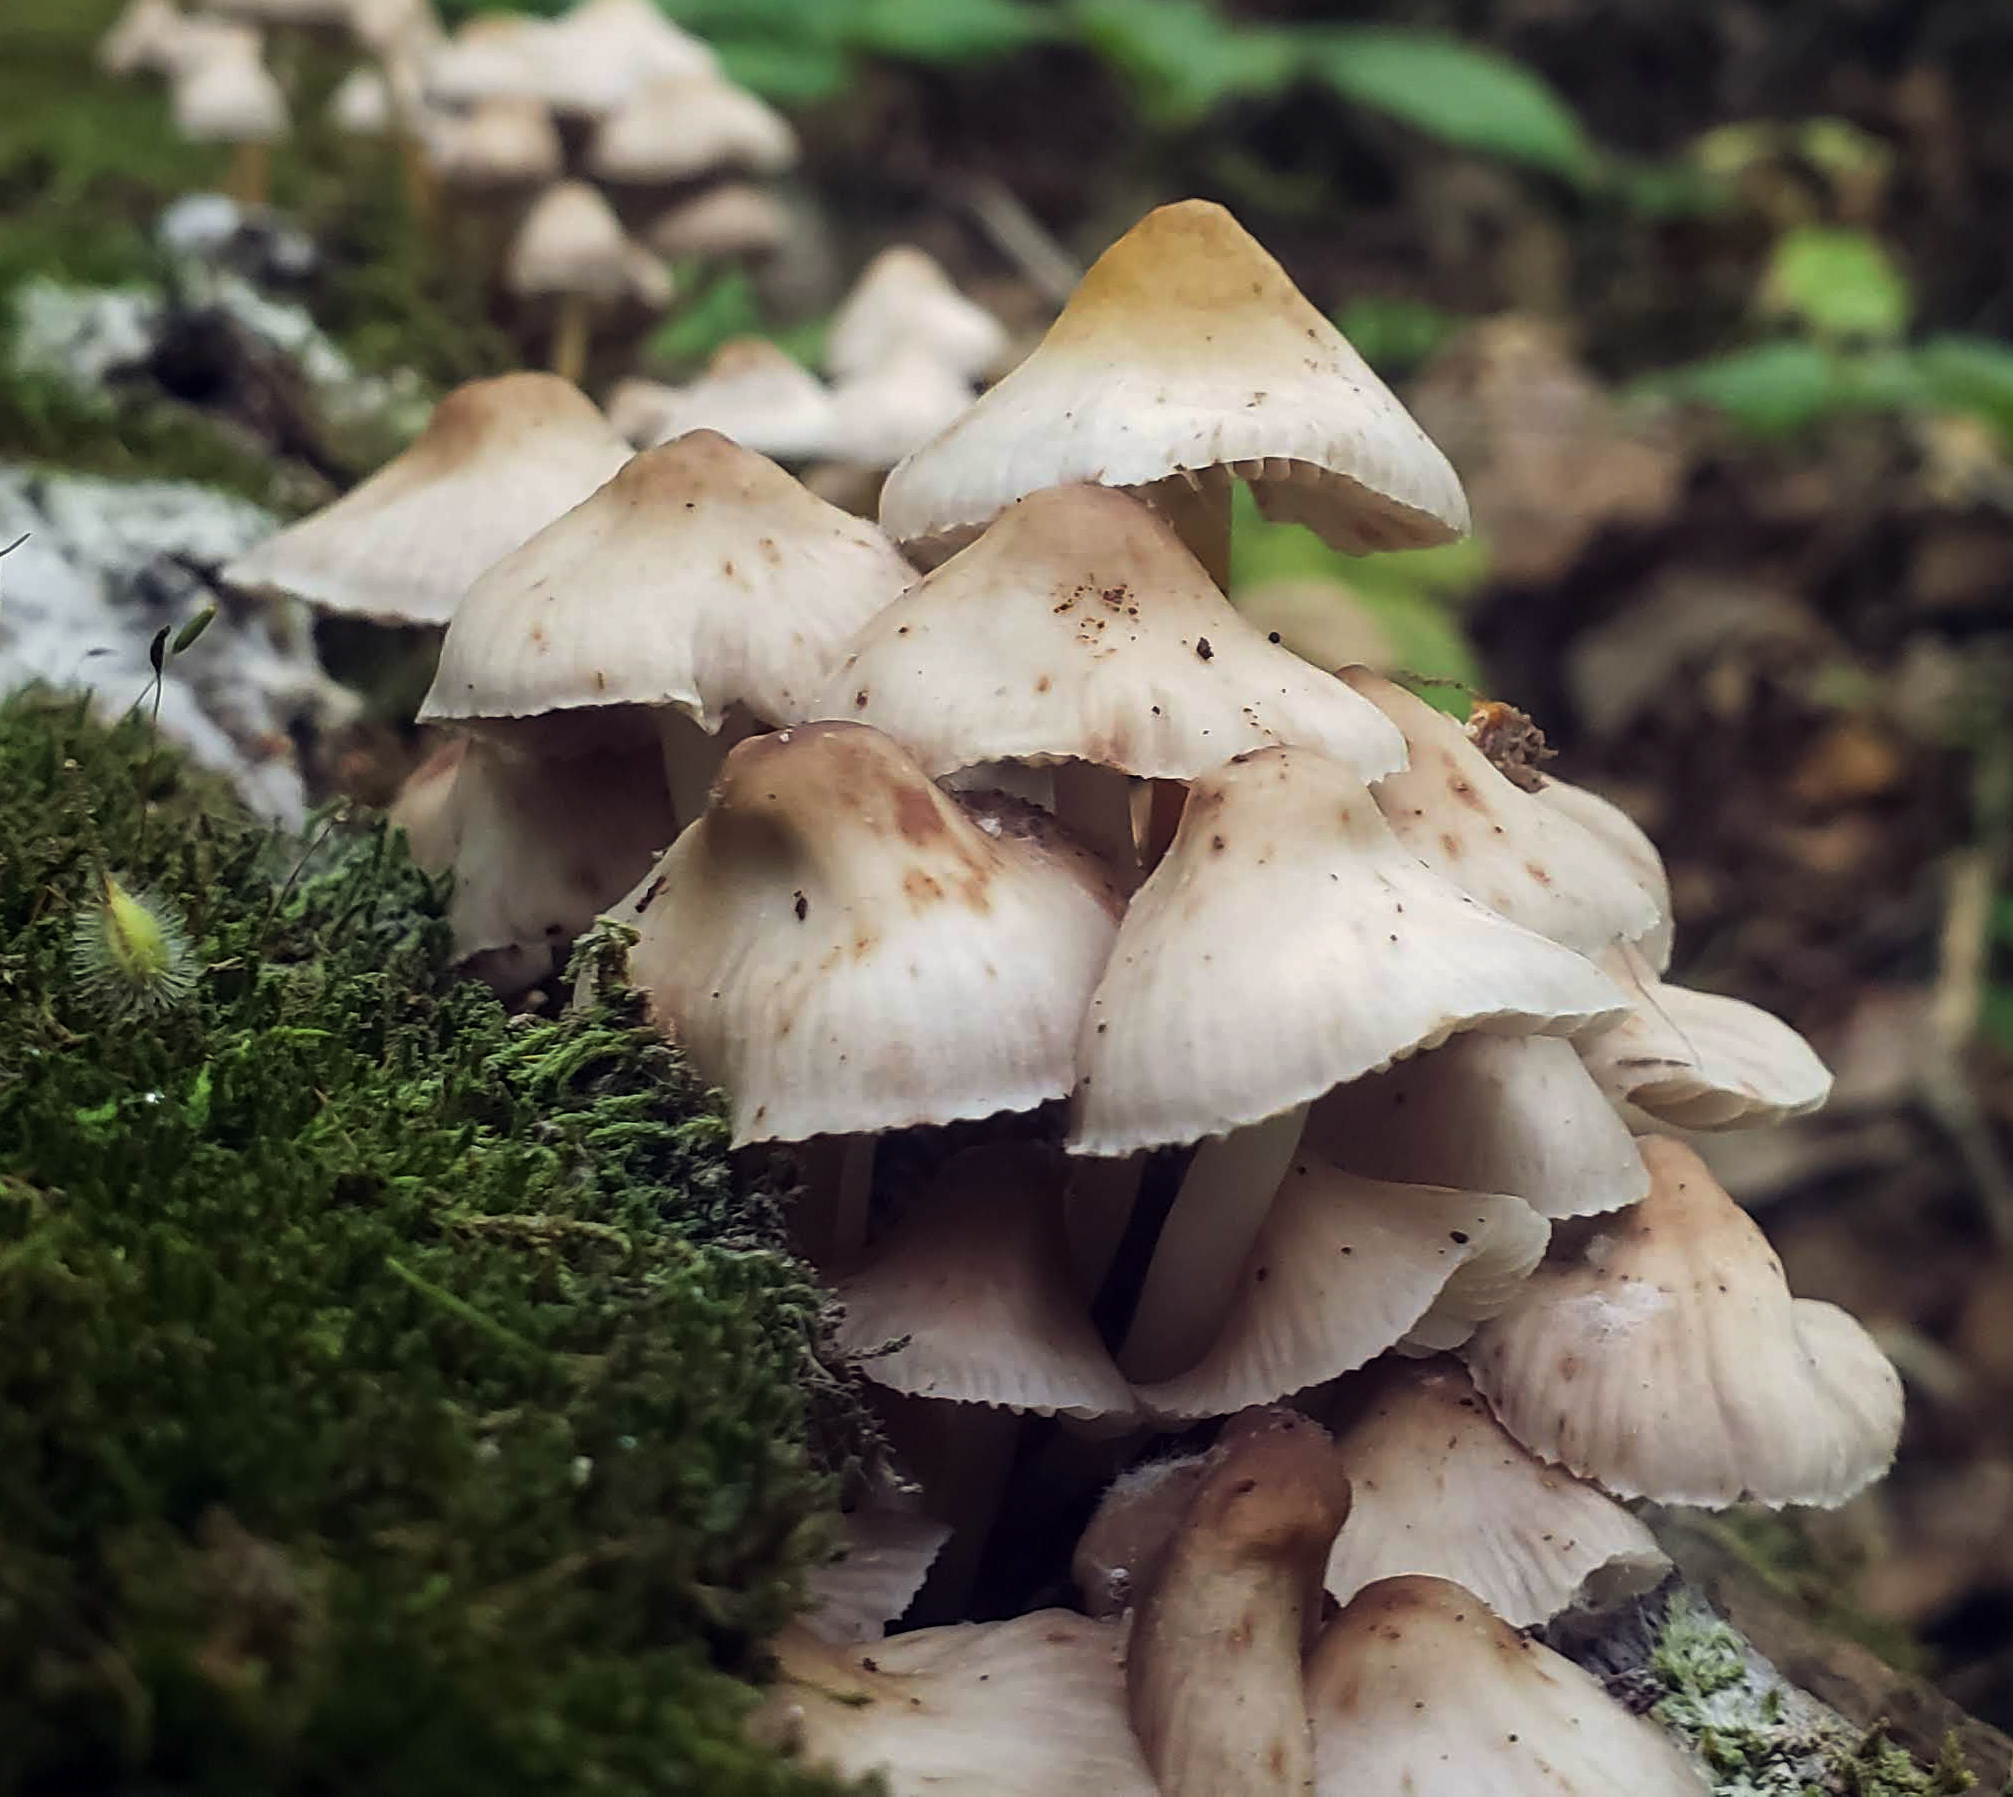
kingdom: Fungi
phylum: Basidiomycota
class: Agaricomycetes
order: Agaricales
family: Mycenaceae
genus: Mycena
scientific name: Mycena inclinata
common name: Clustered bonnet
